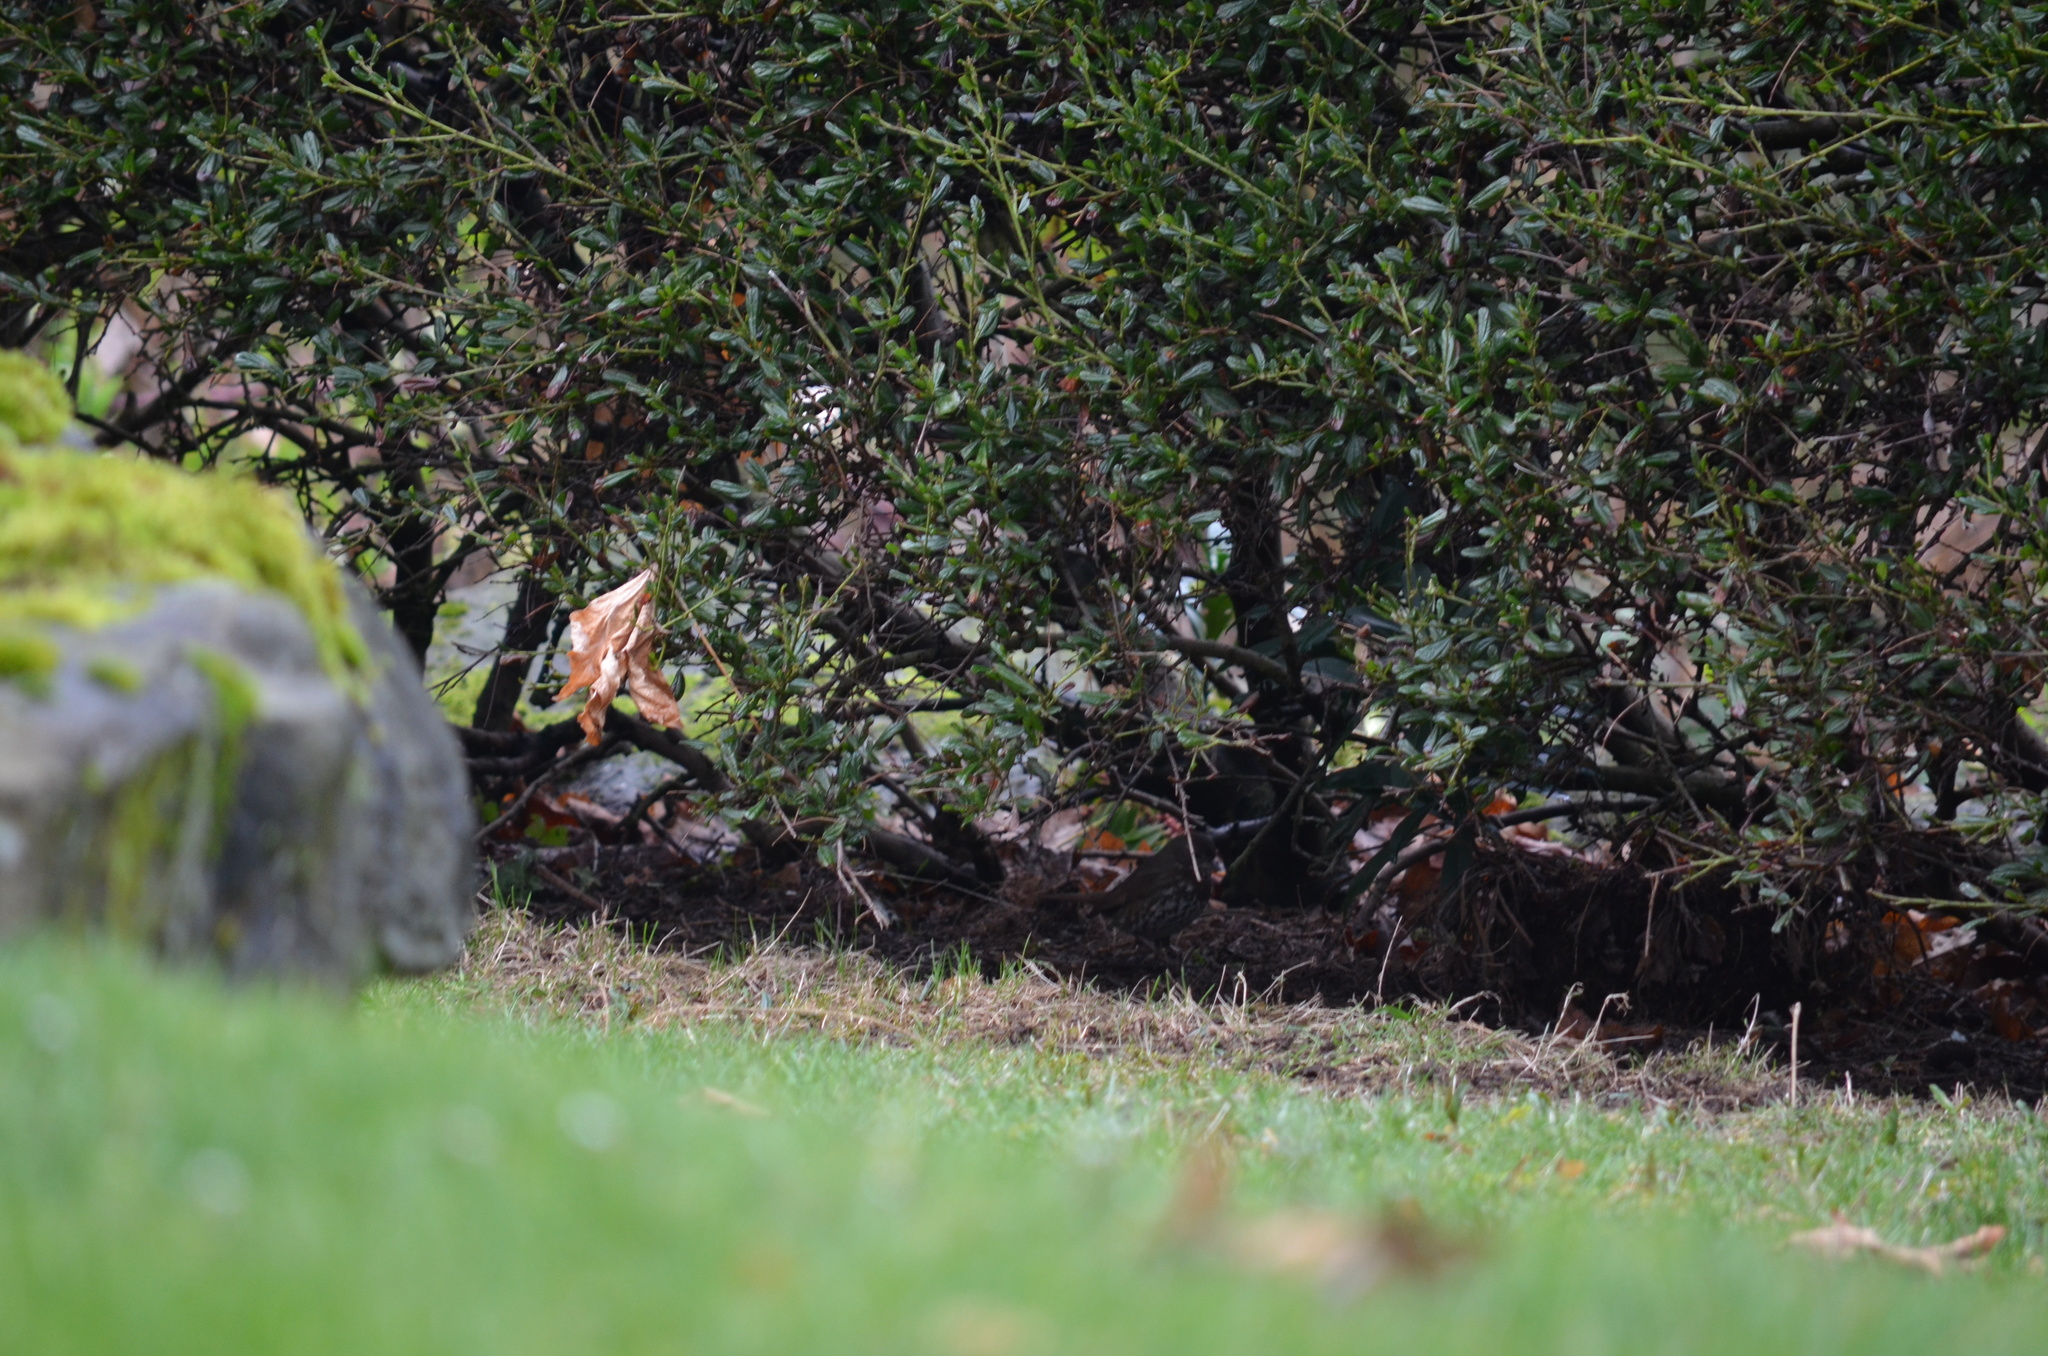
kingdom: Animalia
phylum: Chordata
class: Aves
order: Passeriformes
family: Passerellidae
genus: Passerella
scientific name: Passerella iliaca
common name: Fox sparrow
